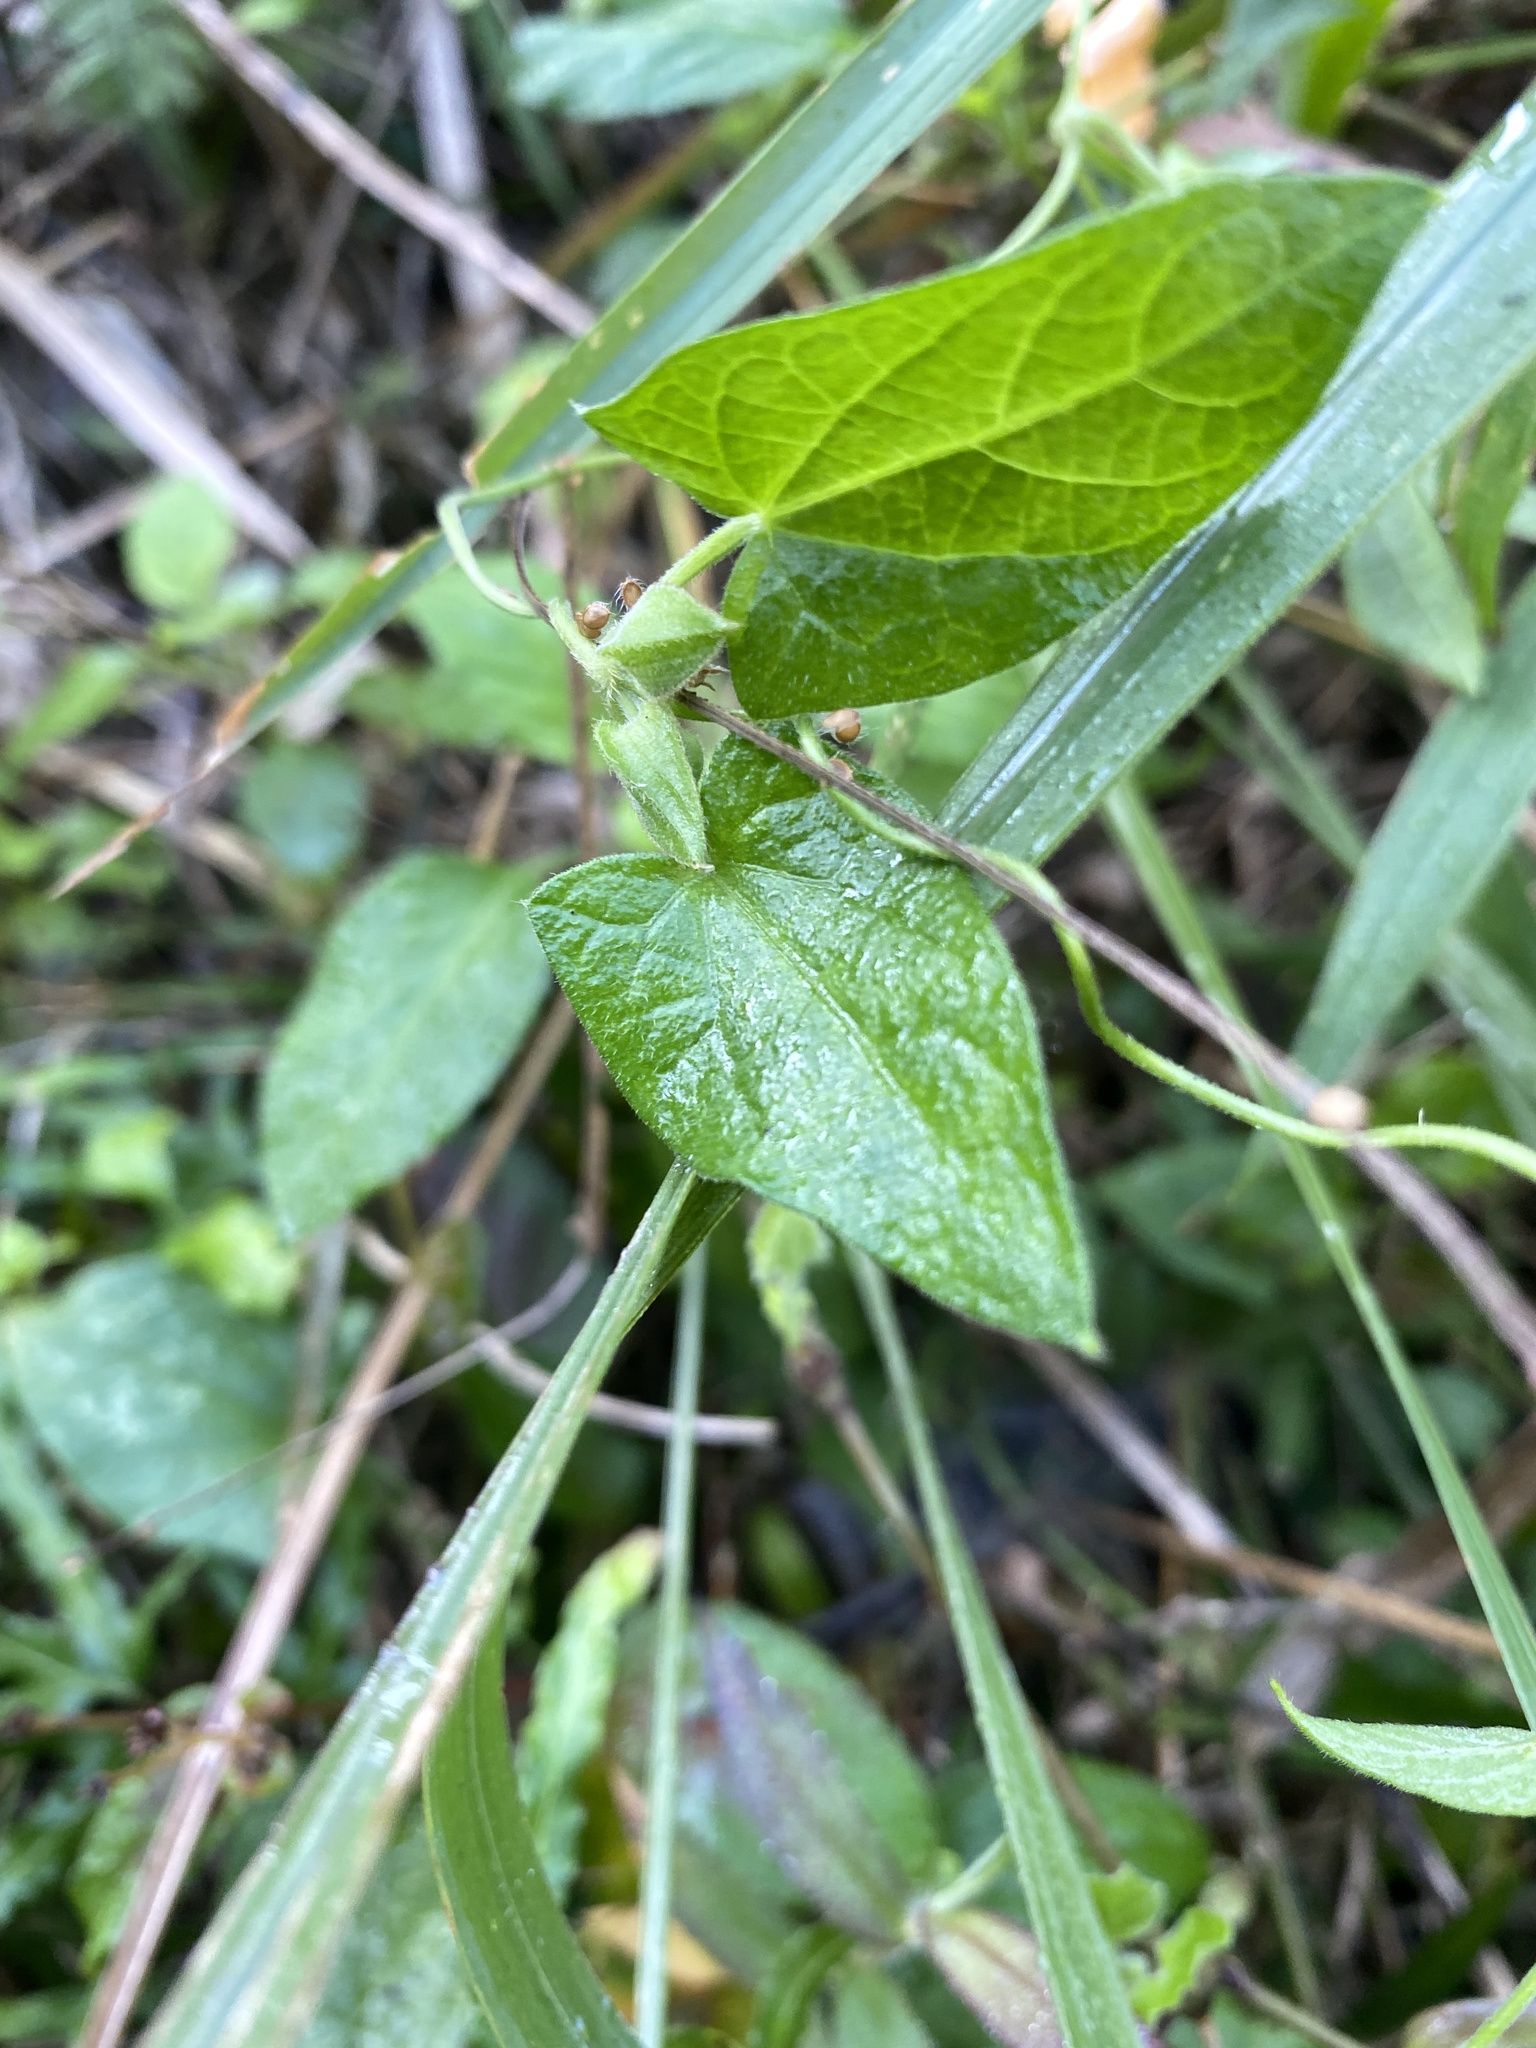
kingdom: Plantae
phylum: Tracheophyta
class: Magnoliopsida
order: Lamiales
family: Acanthaceae
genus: Thunbergia
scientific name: Thunbergia alata
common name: Blackeyed susan vine
